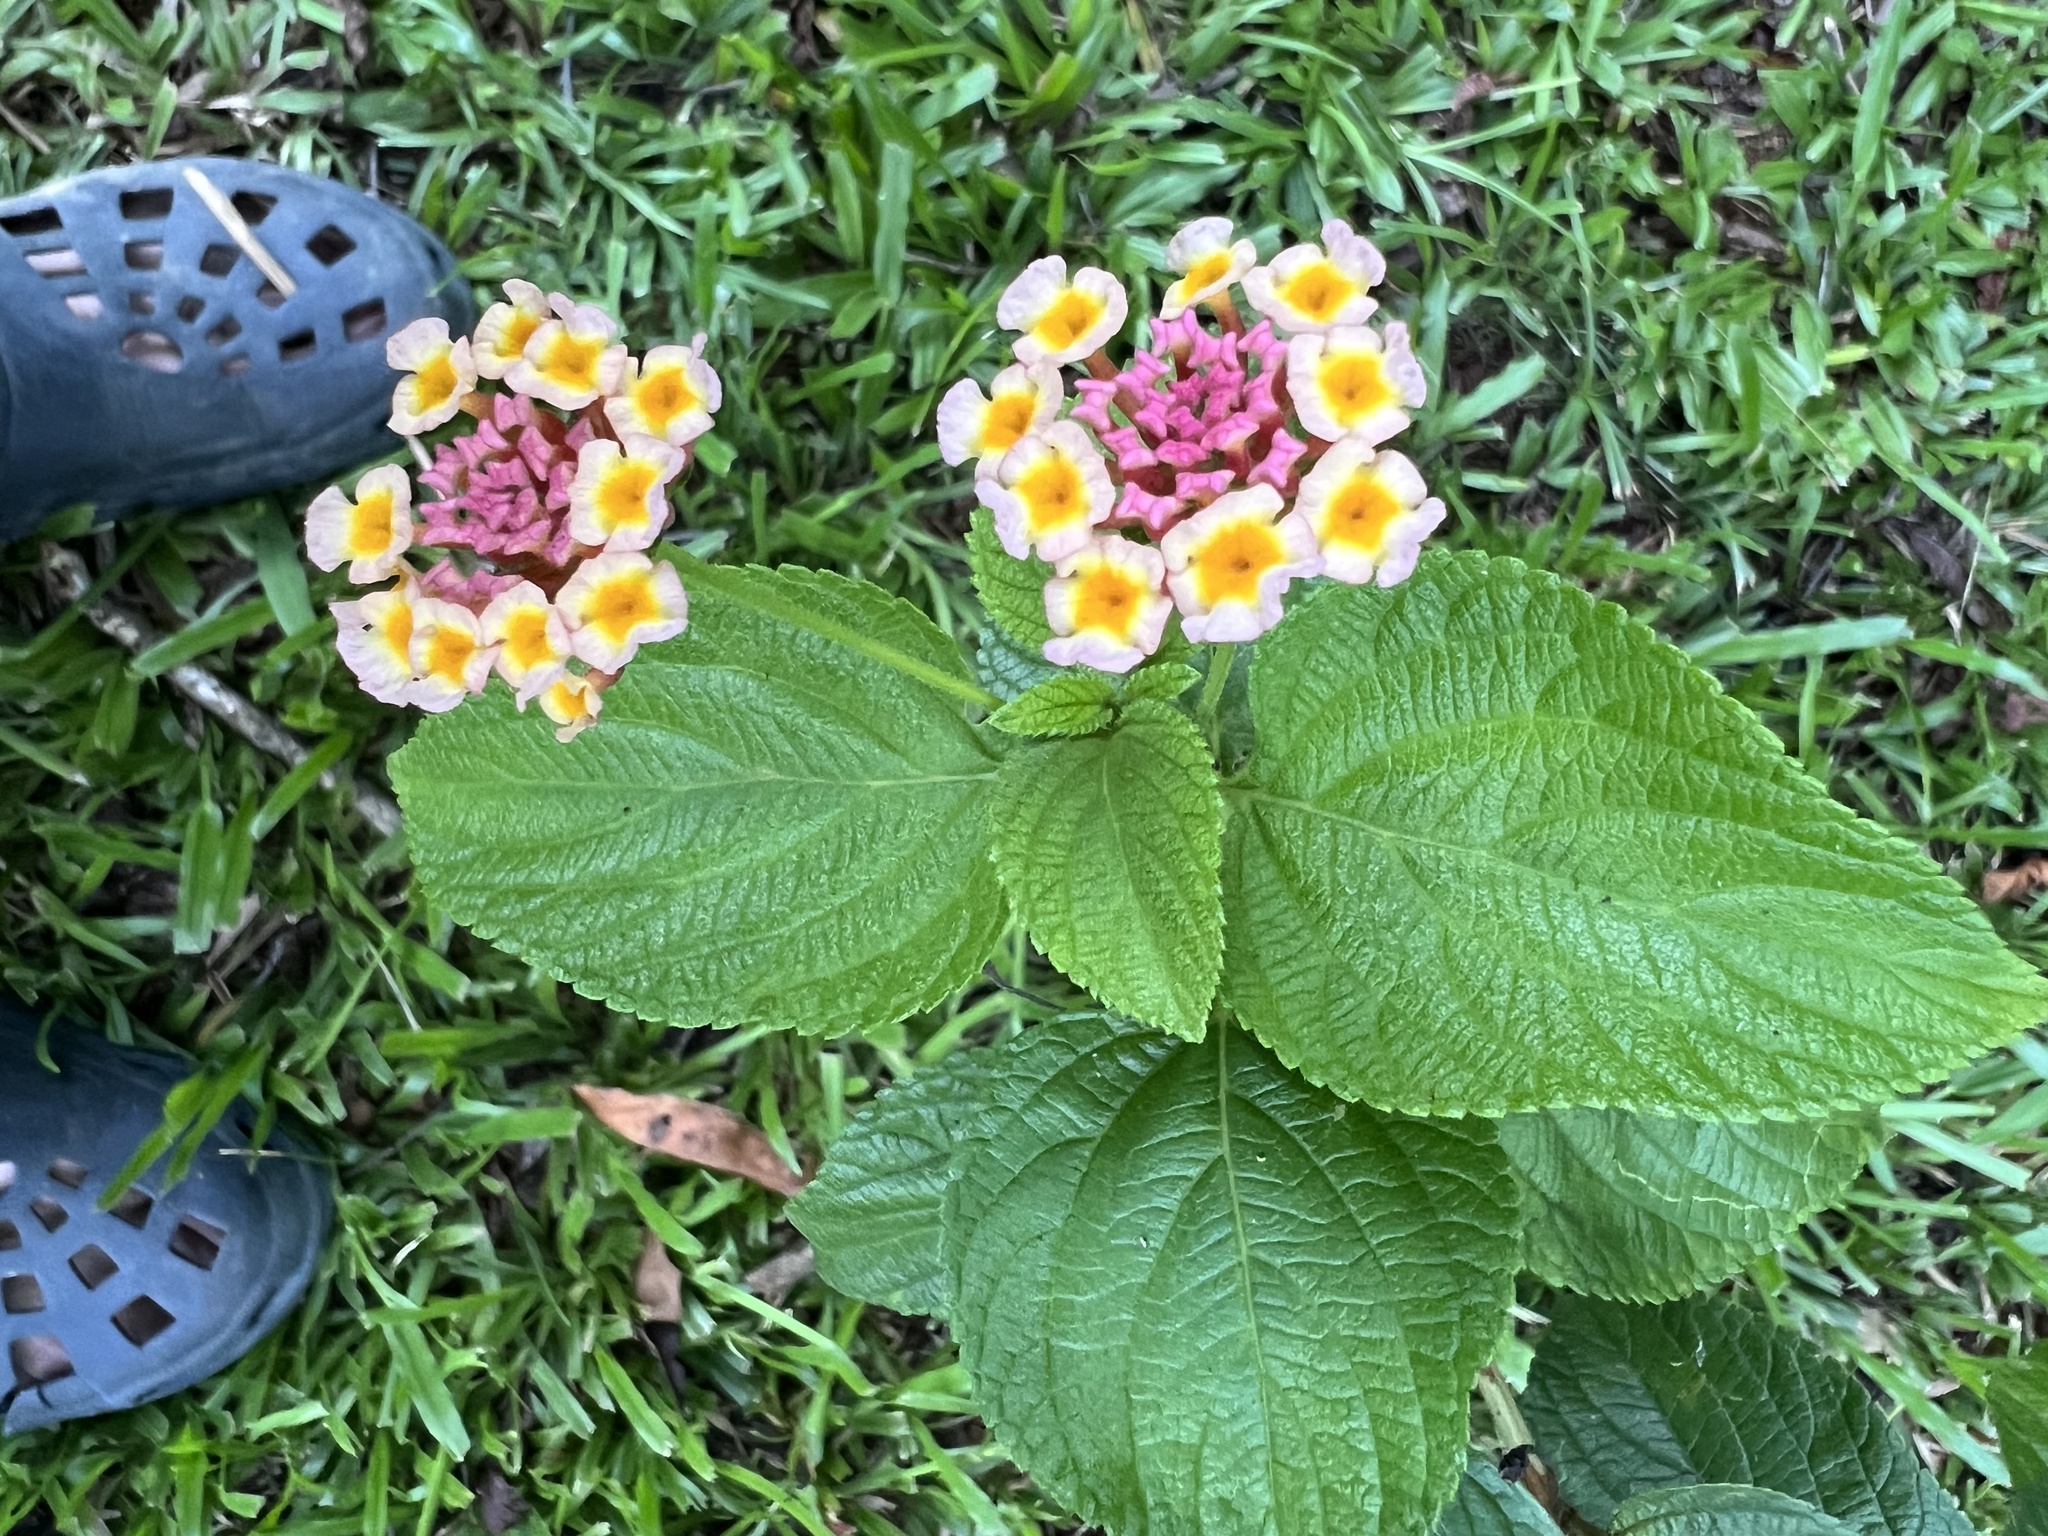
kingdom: Plantae
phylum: Tracheophyta
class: Magnoliopsida
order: Lamiales
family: Verbenaceae
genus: Lantana
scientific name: Lantana camara
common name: Lantana
